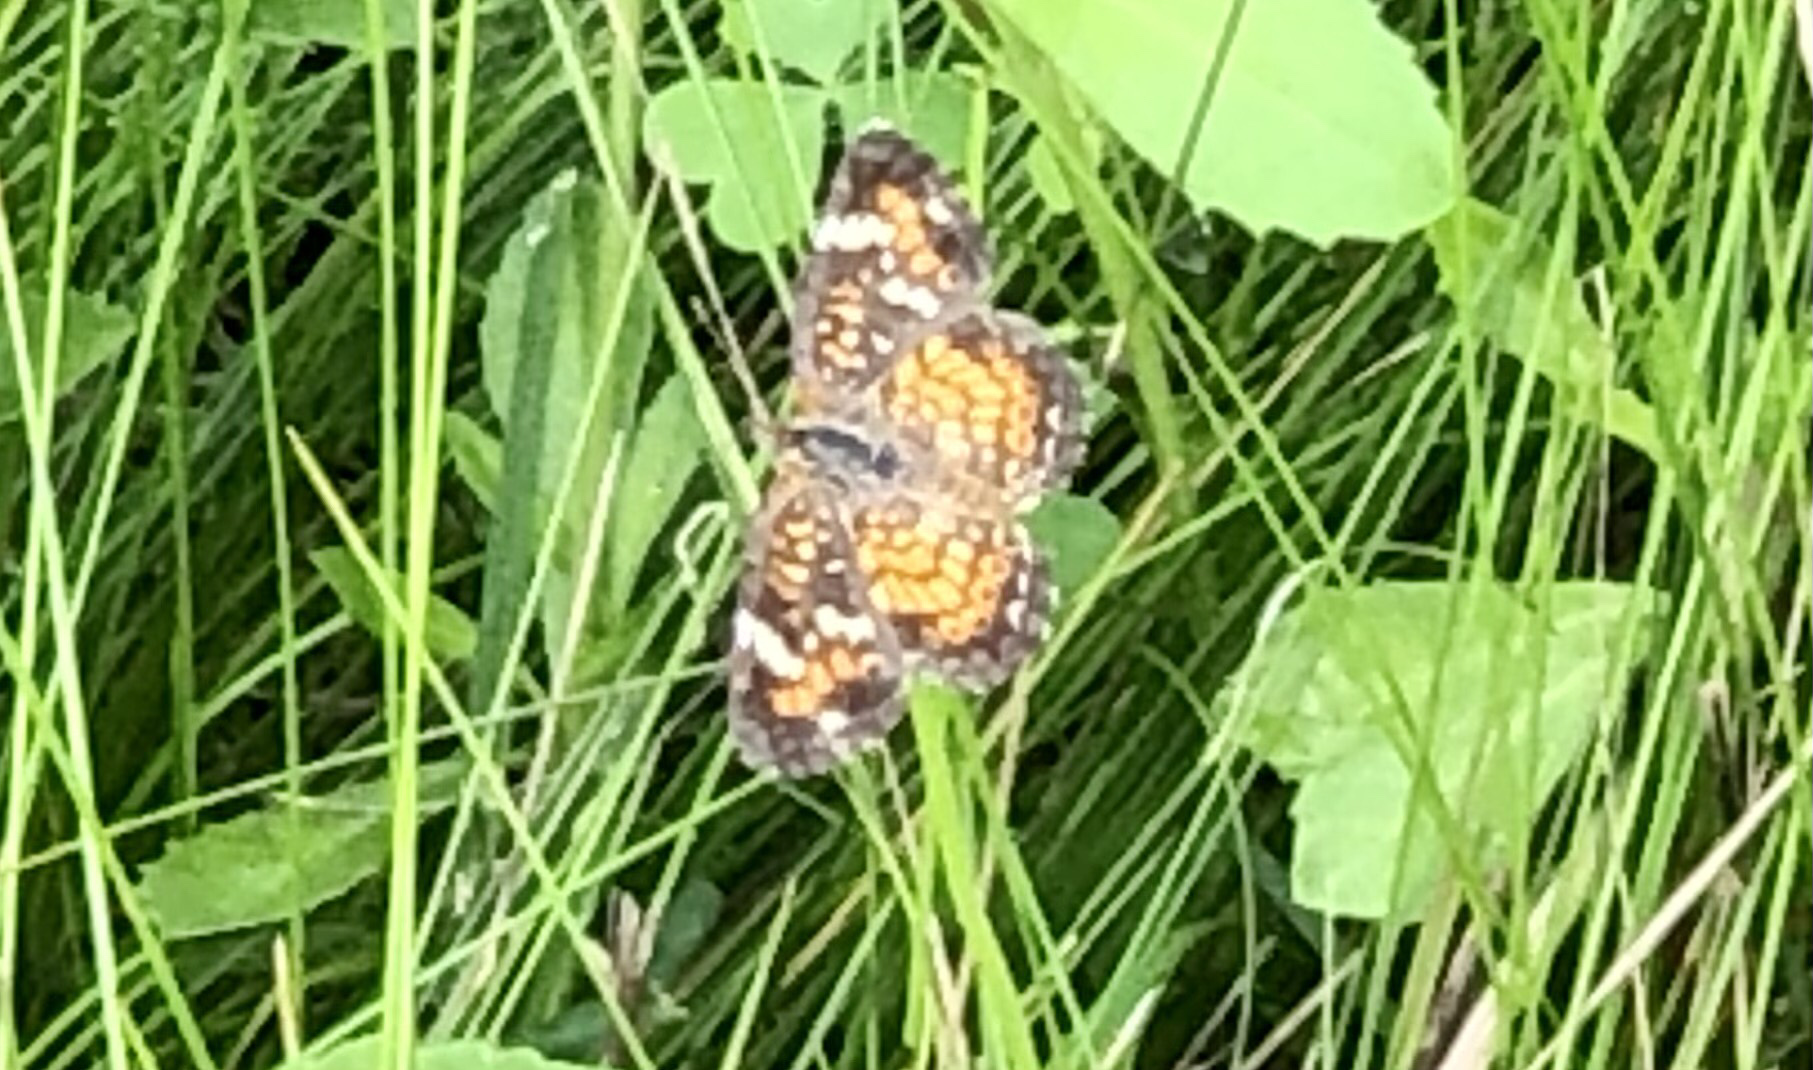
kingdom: Animalia
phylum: Arthropoda
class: Insecta
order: Lepidoptera
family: Nymphalidae
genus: Phyciodes
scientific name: Phyciodes phaon
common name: Phaon crescent
